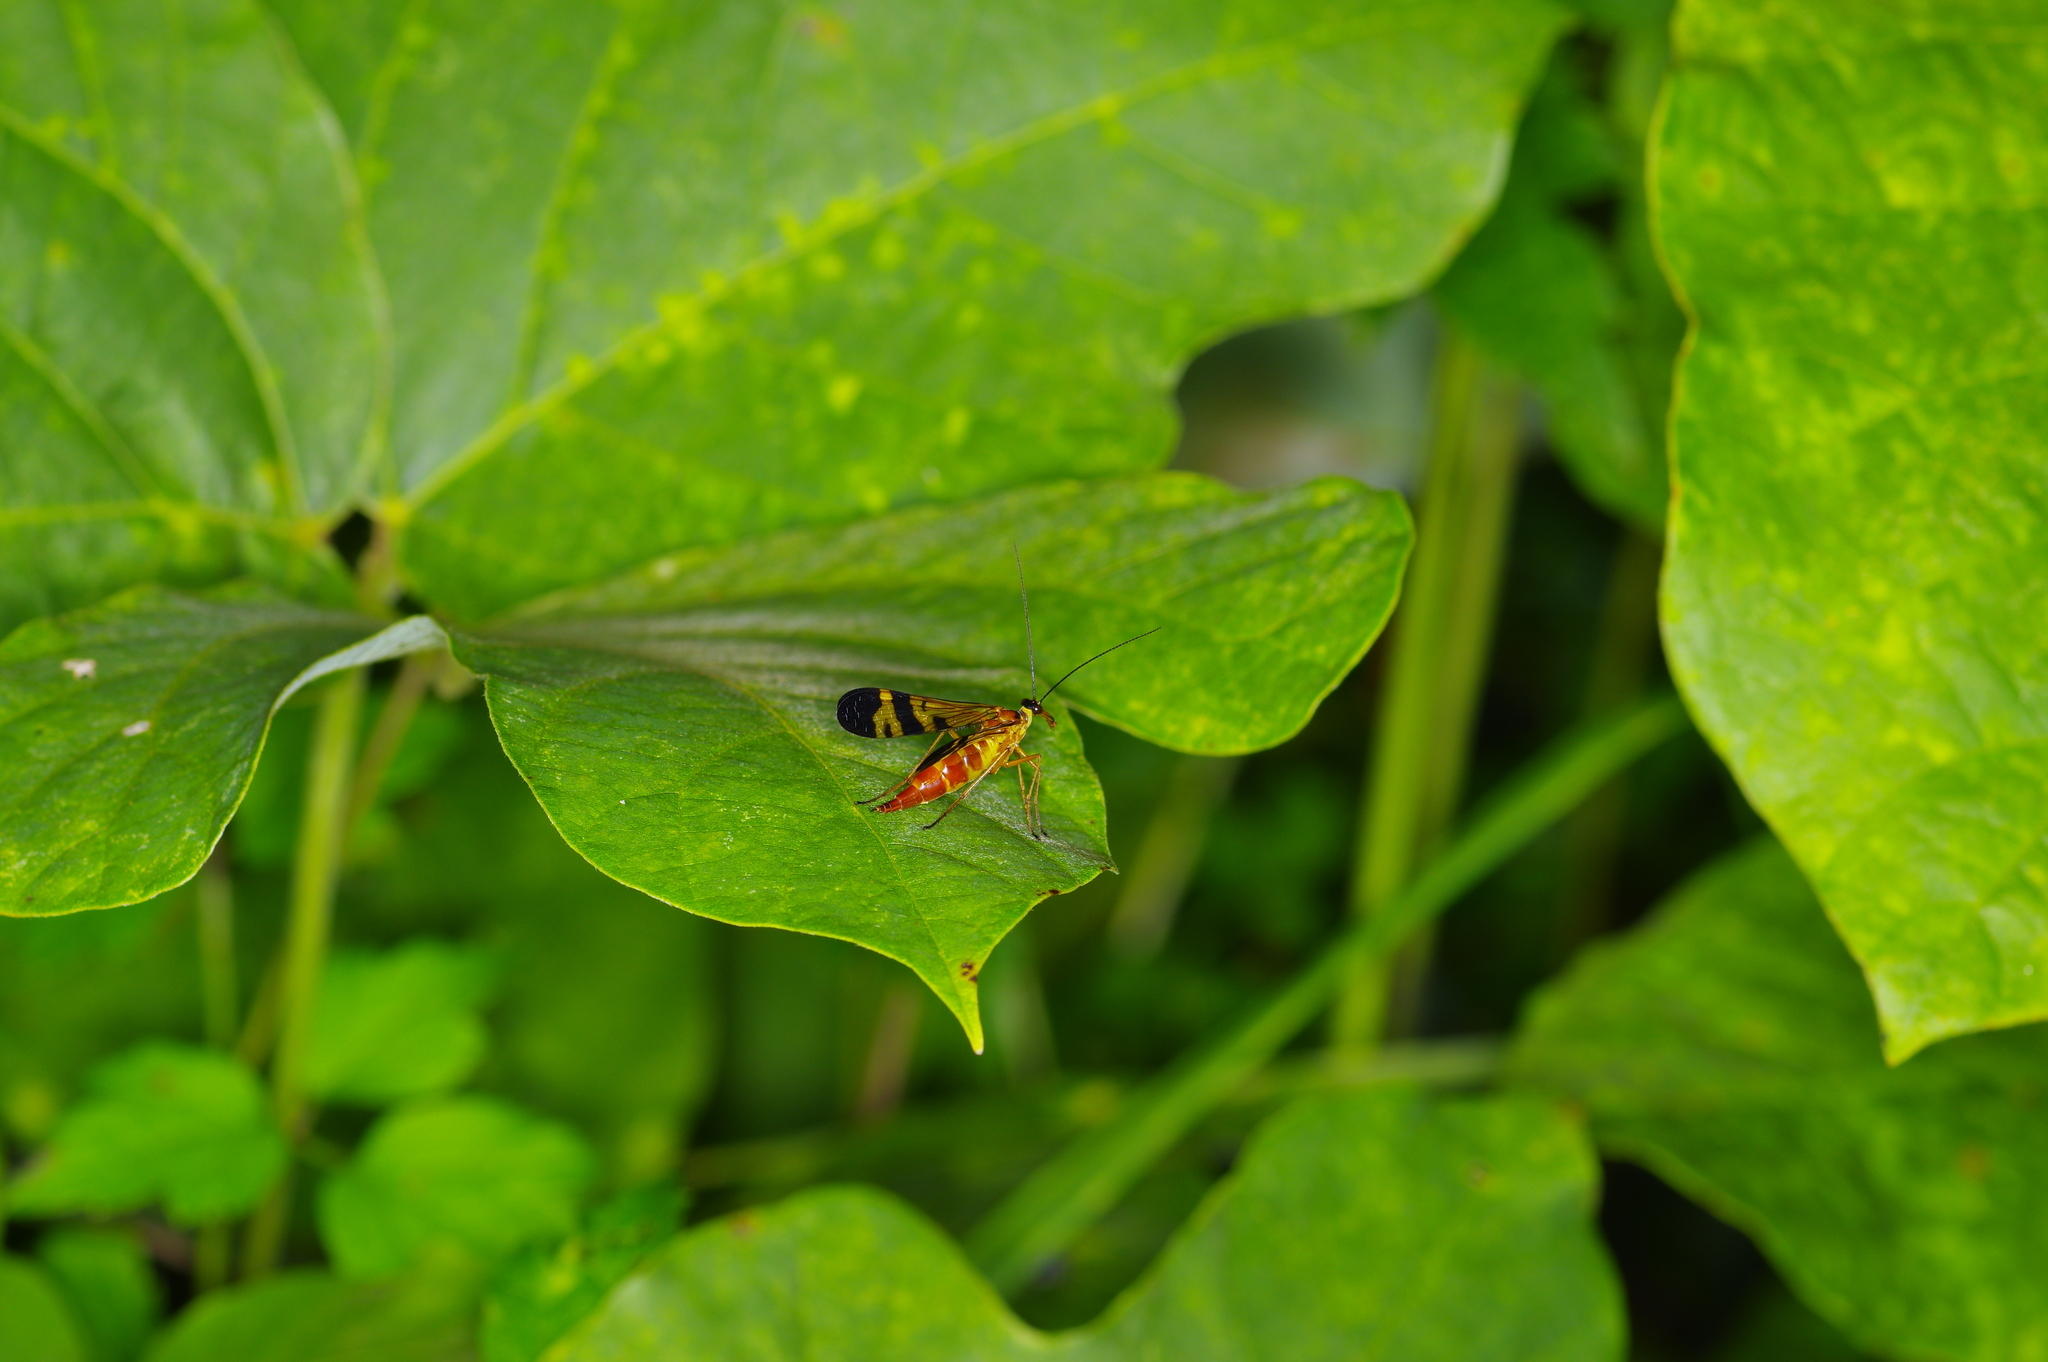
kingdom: Animalia
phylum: Arthropoda
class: Insecta
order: Mecoptera
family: Panorpidae
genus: Panorpa
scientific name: Panorpa japonica
